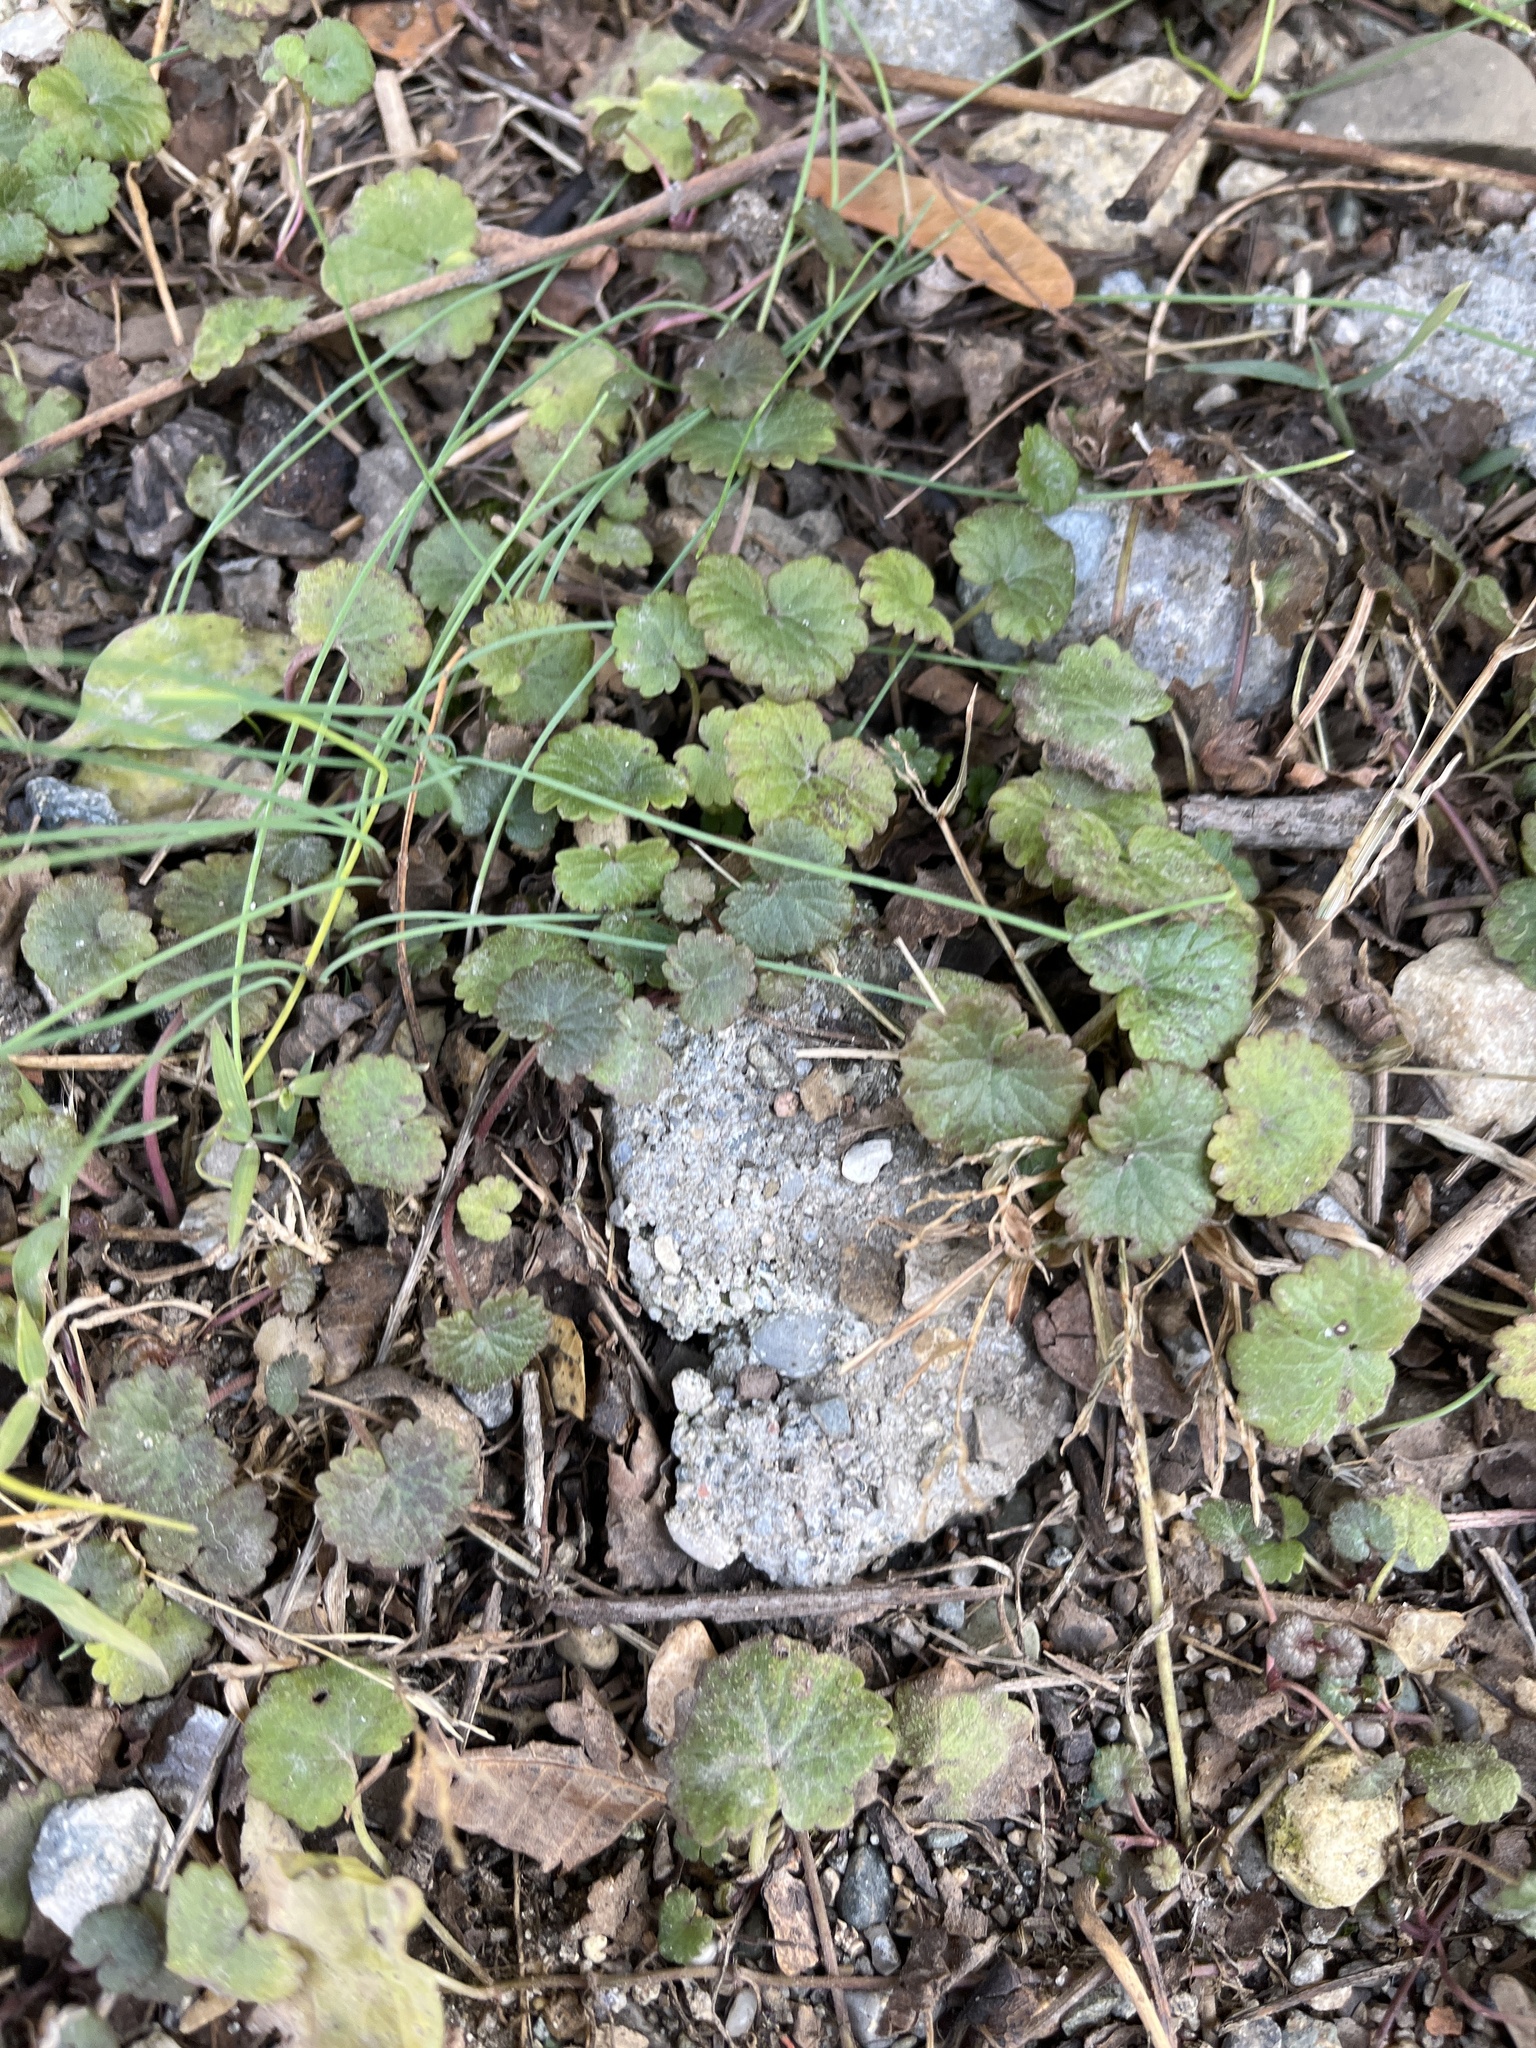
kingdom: Plantae
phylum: Tracheophyta
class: Magnoliopsida
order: Lamiales
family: Lamiaceae
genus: Glechoma
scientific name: Glechoma hederacea
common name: Ground ivy
